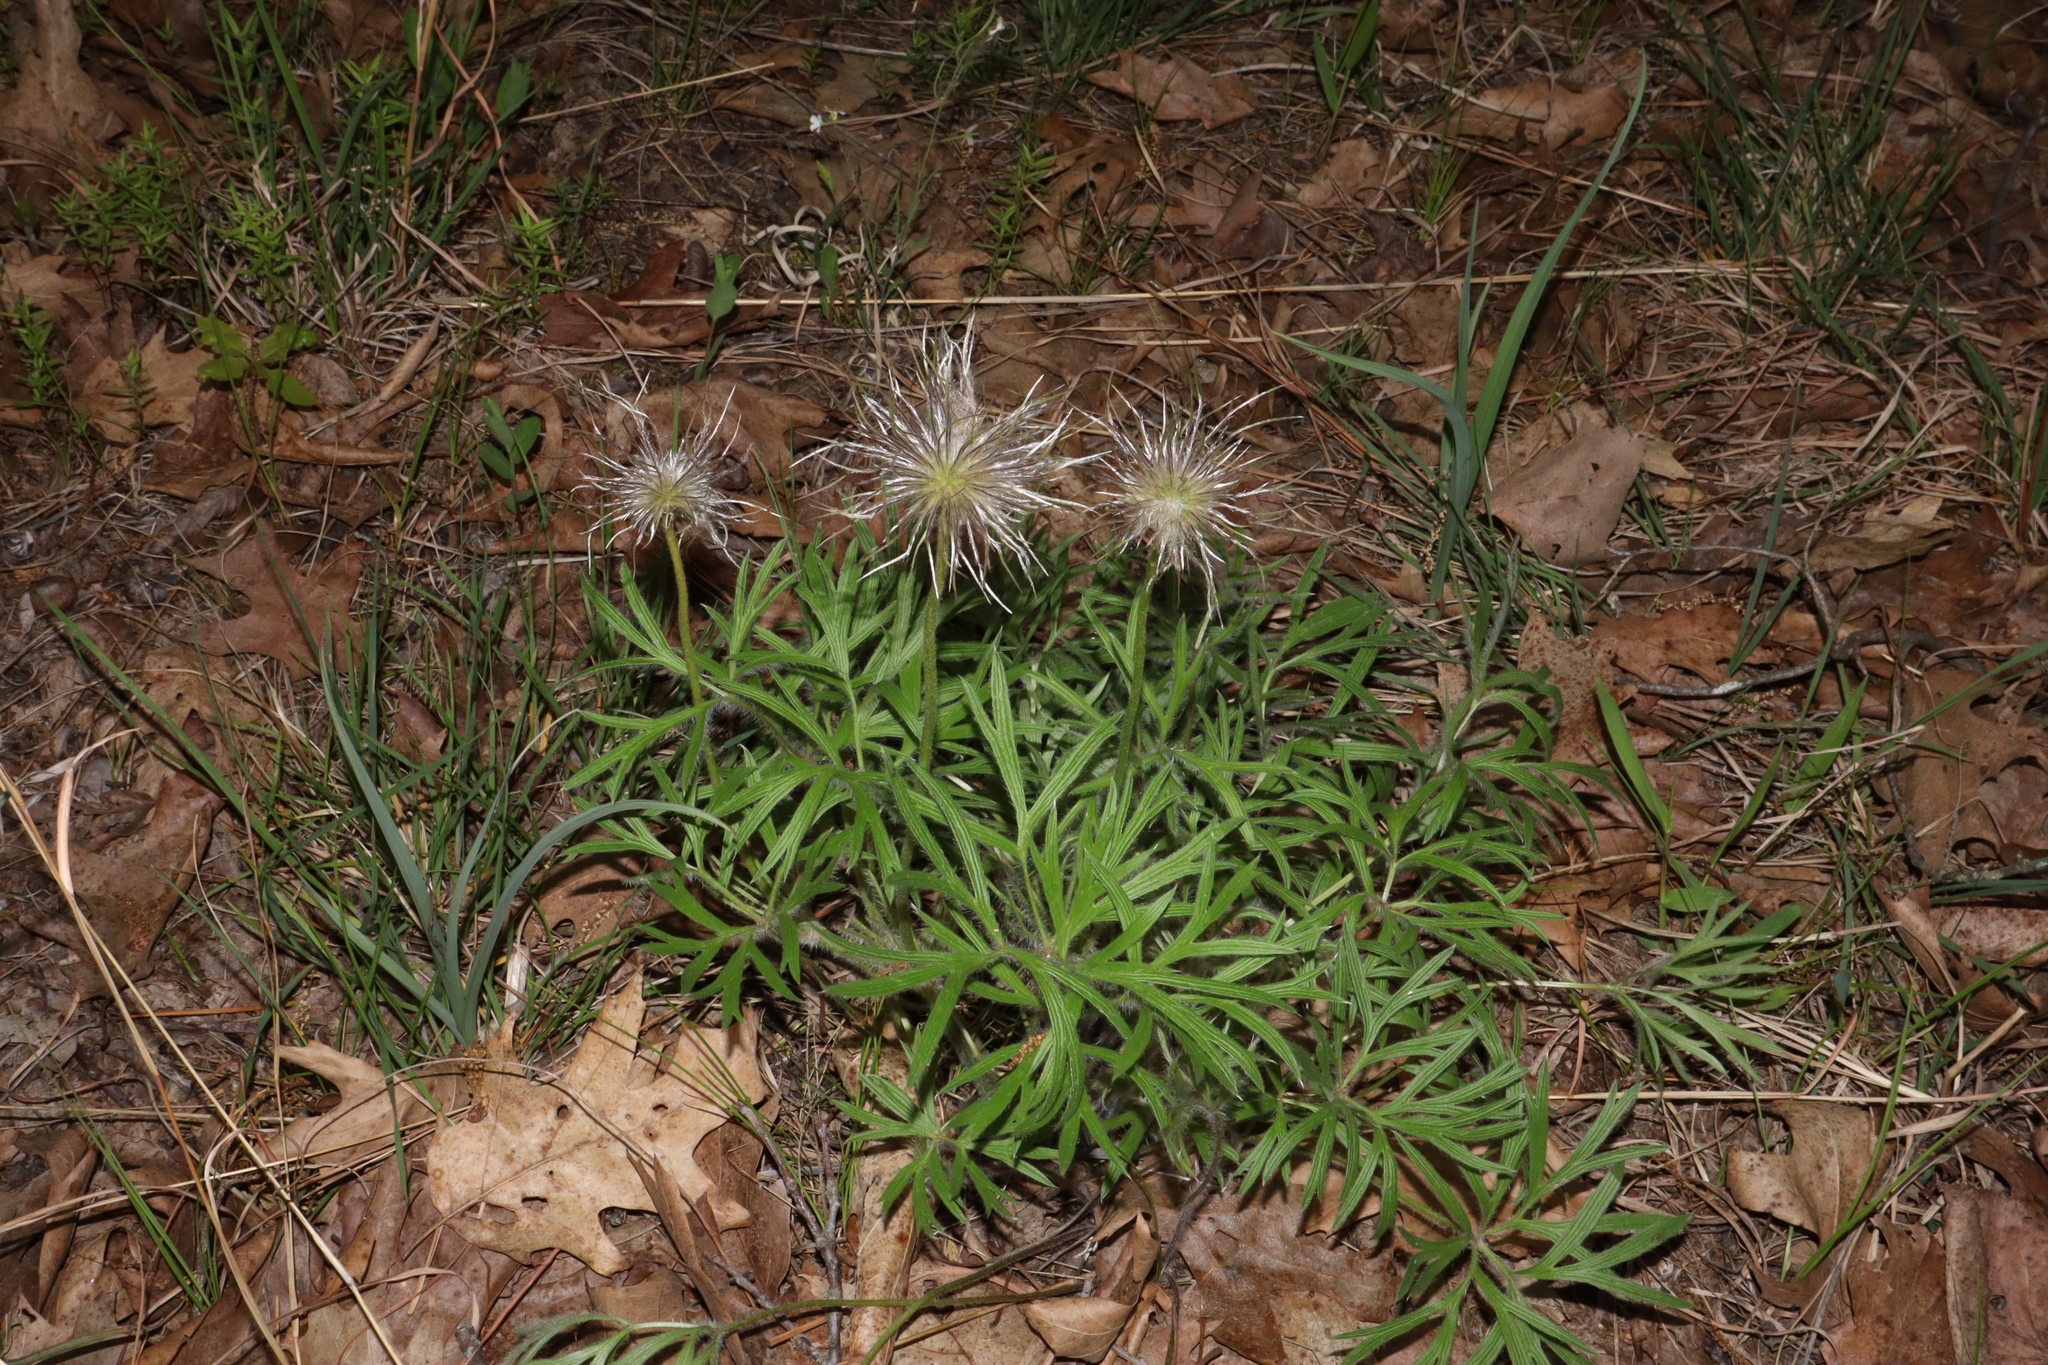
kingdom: Plantae
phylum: Tracheophyta
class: Magnoliopsida
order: Ranunculales
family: Ranunculaceae
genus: Pulsatilla
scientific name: Pulsatilla nuttalliana
